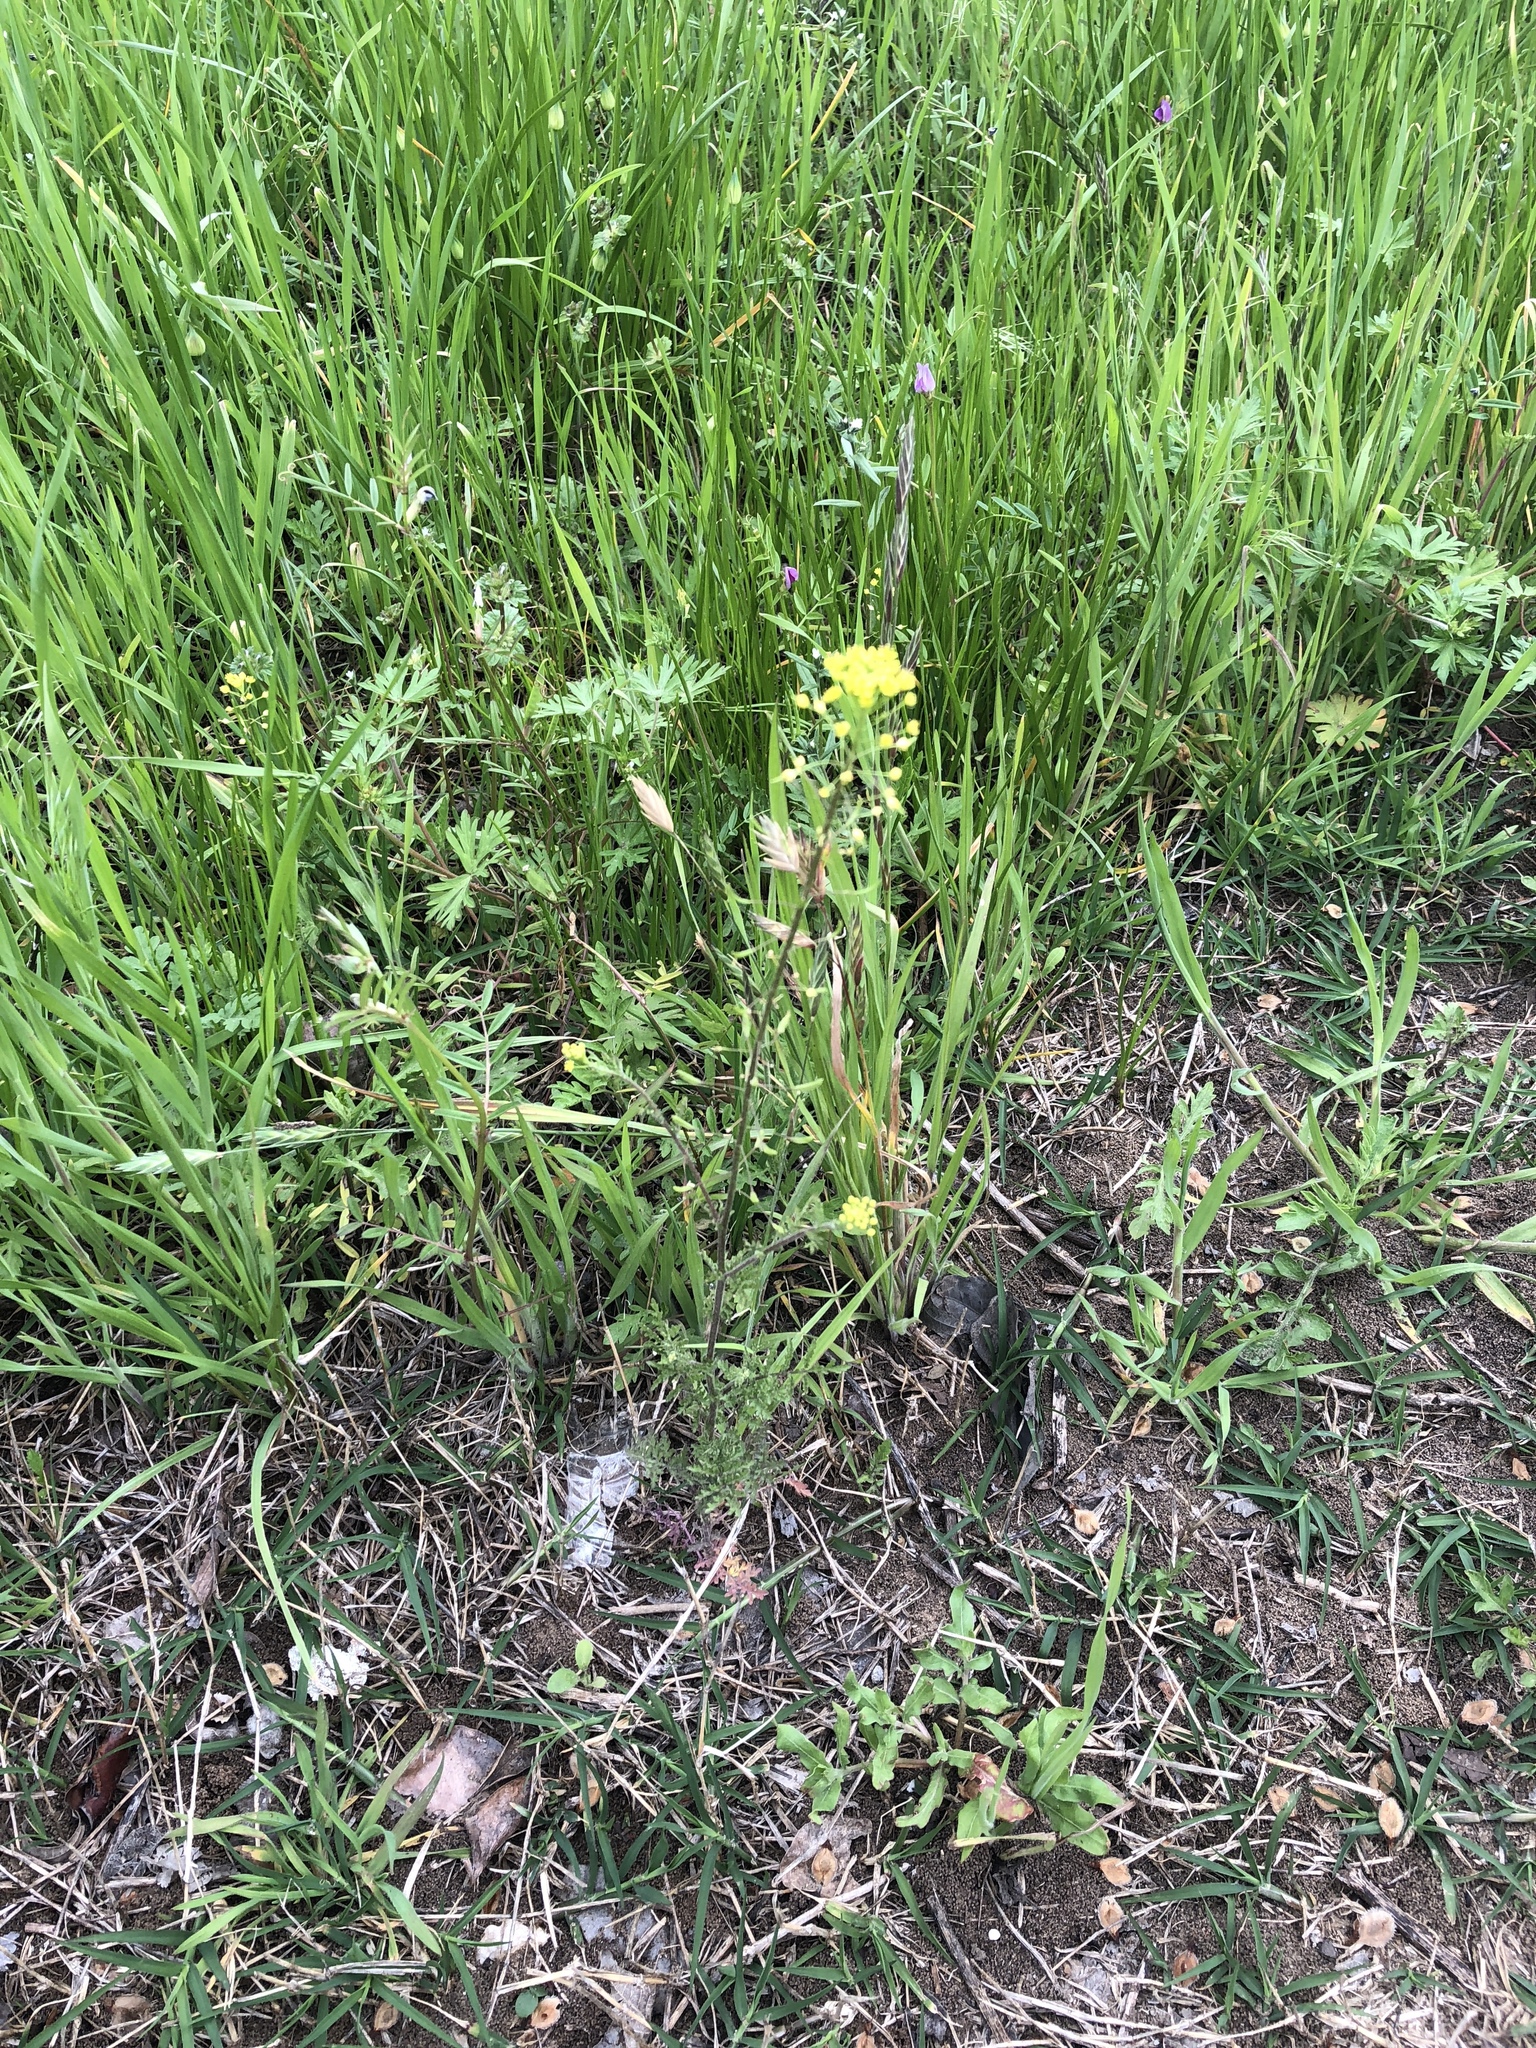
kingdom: Plantae
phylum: Tracheophyta
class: Magnoliopsida
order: Brassicales
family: Brassicaceae
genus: Descurainia
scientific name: Descurainia pinnata
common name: Western tansy mustard
